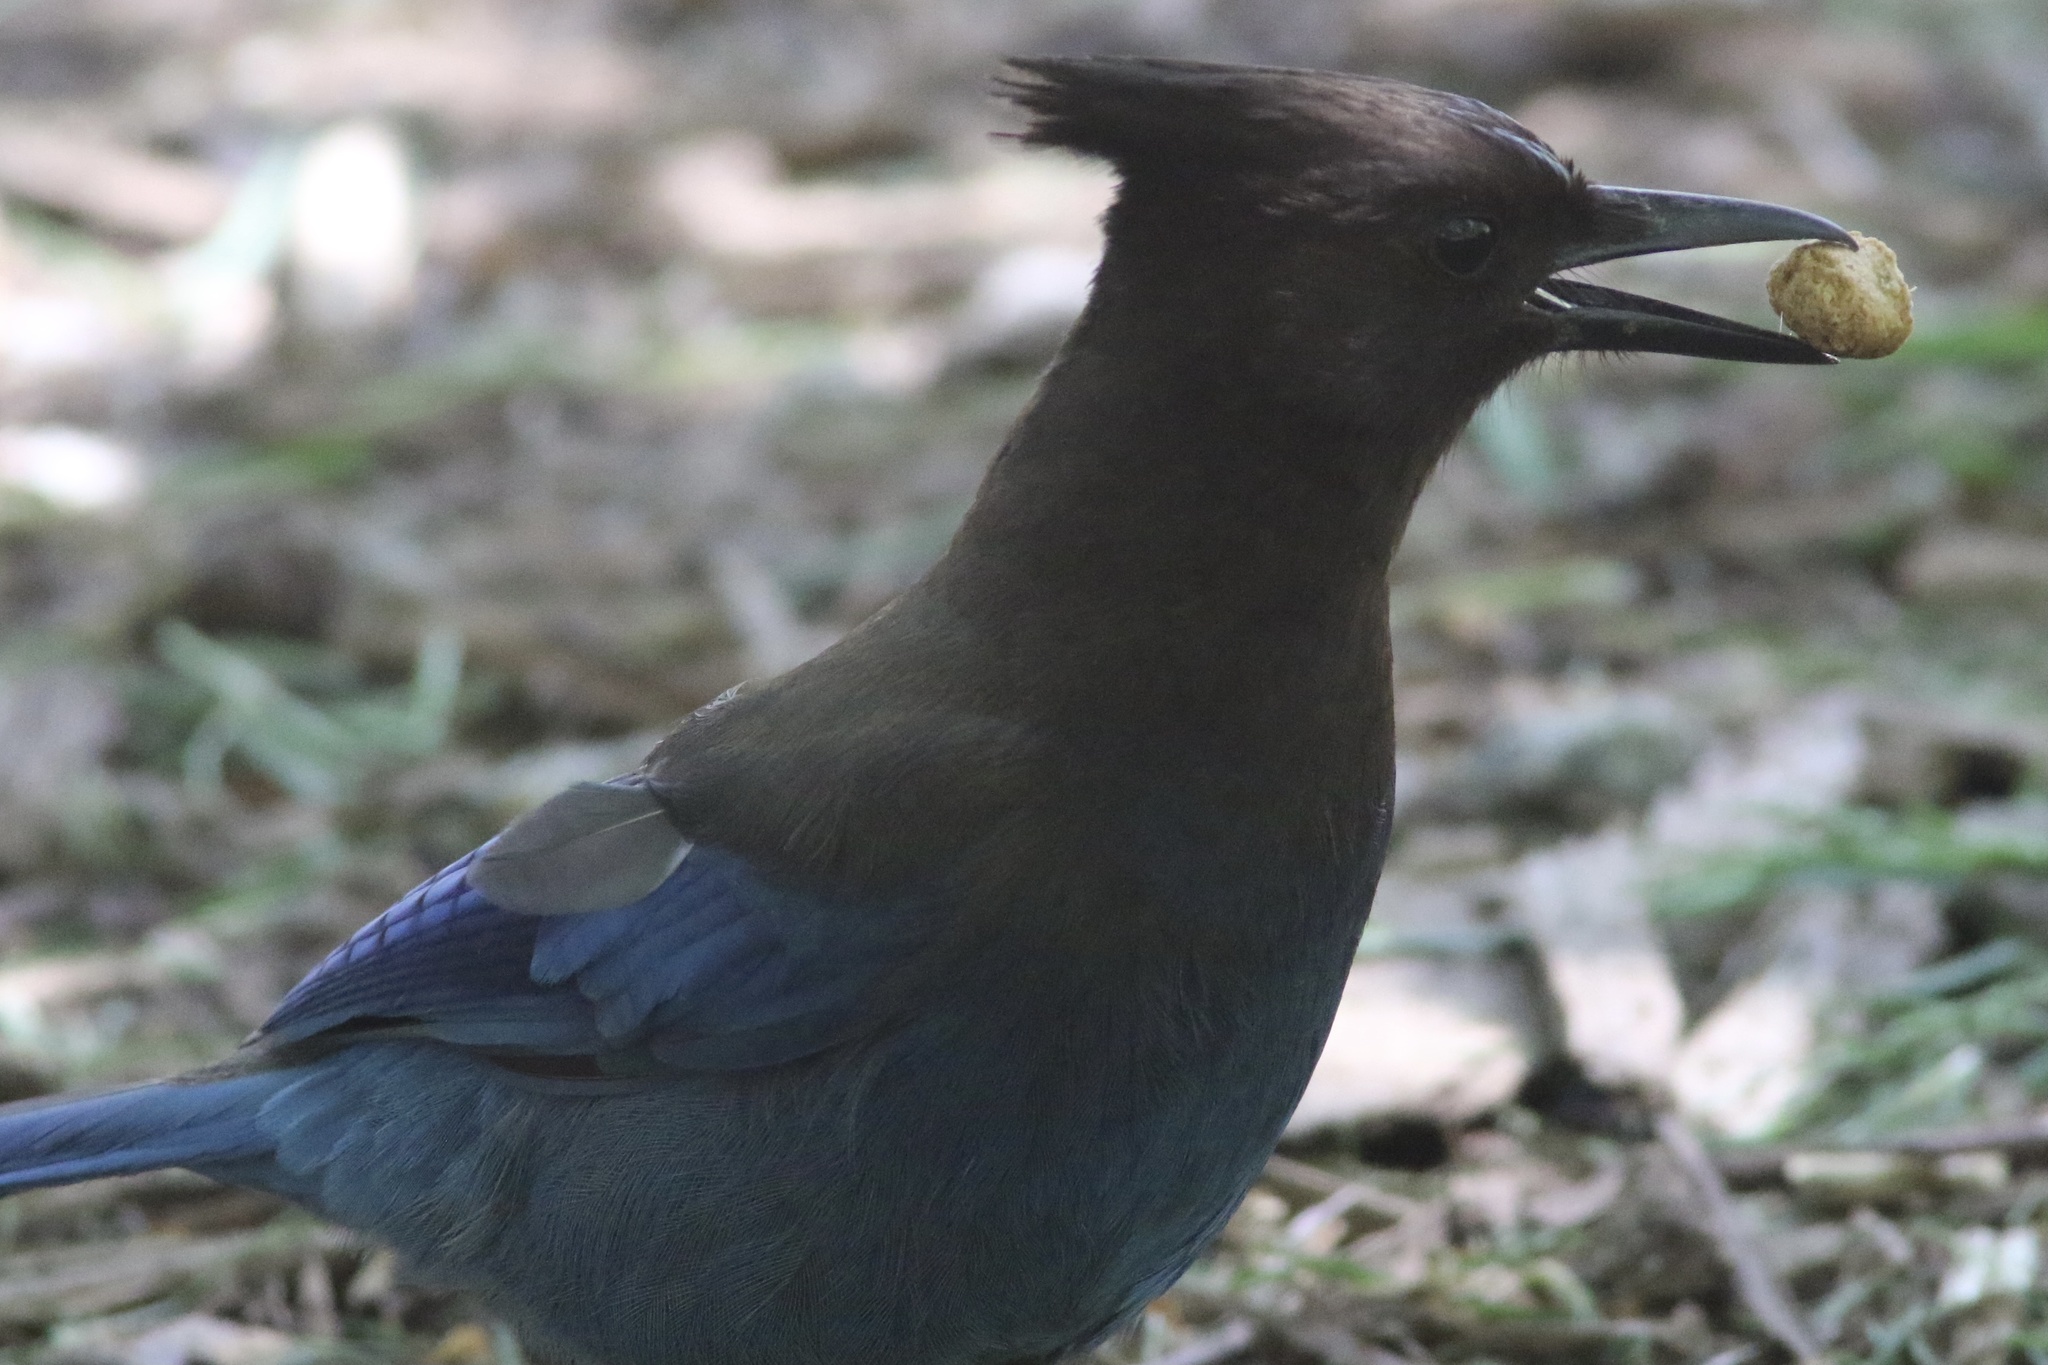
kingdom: Animalia
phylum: Chordata
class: Aves
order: Passeriformes
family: Corvidae
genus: Cyanocitta
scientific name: Cyanocitta stelleri
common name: Steller's jay
